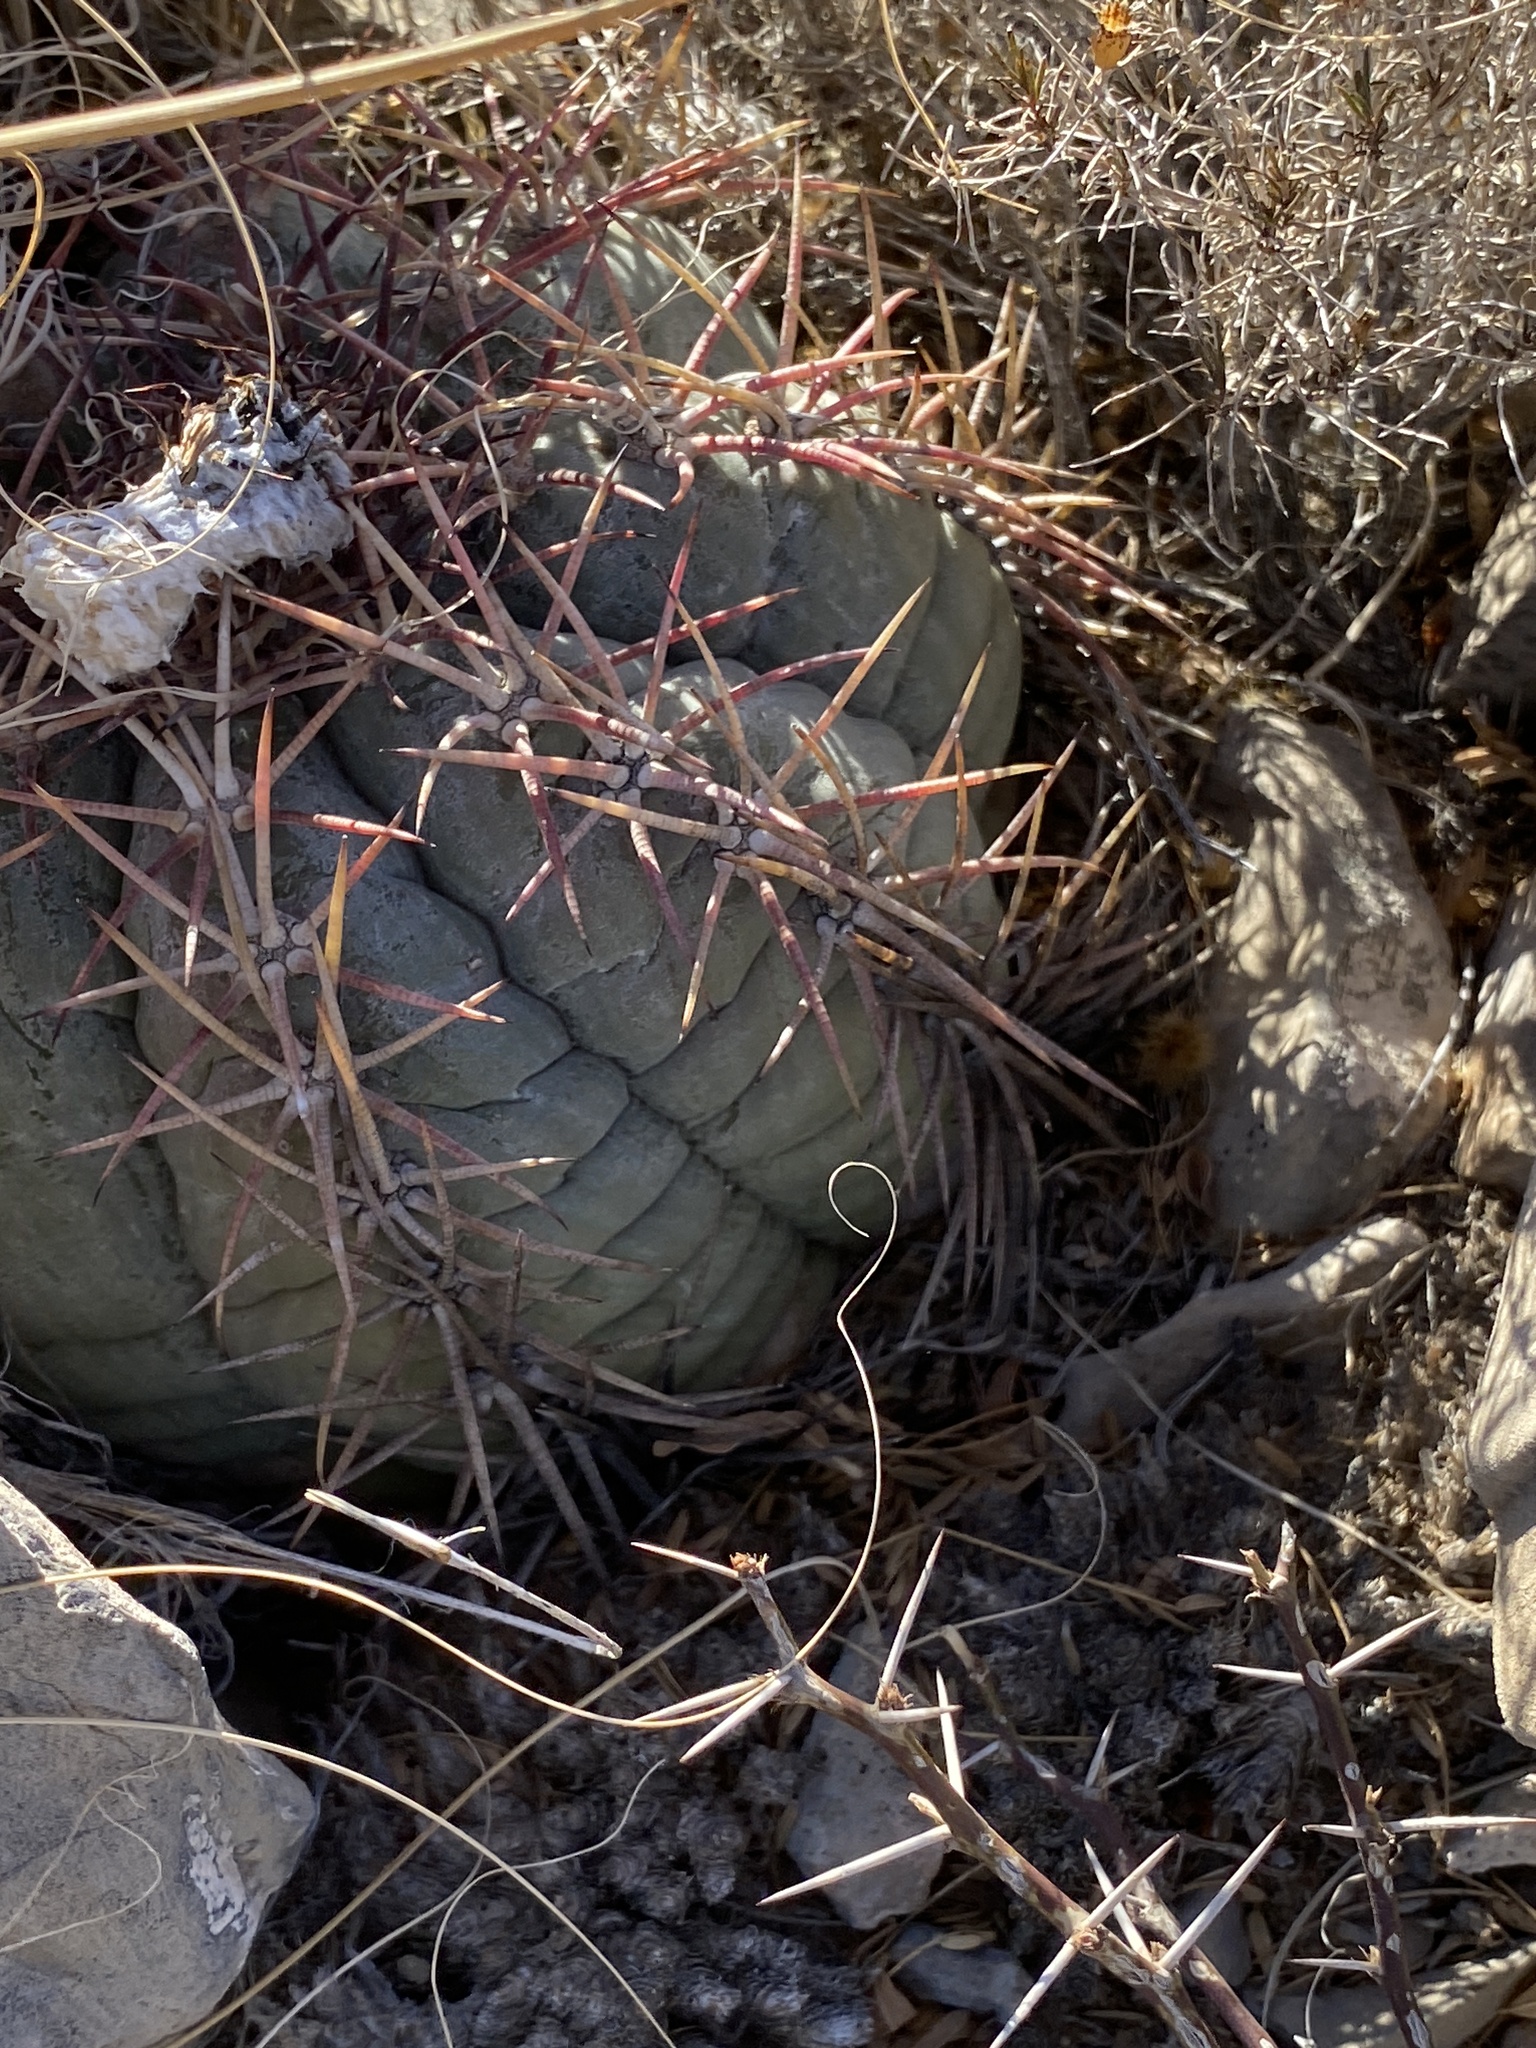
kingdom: Plantae
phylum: Tracheophyta
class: Magnoliopsida
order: Caryophyllales
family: Cactaceae
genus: Echinocactus
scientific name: Echinocactus horizonthalonius
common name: Devilshead
